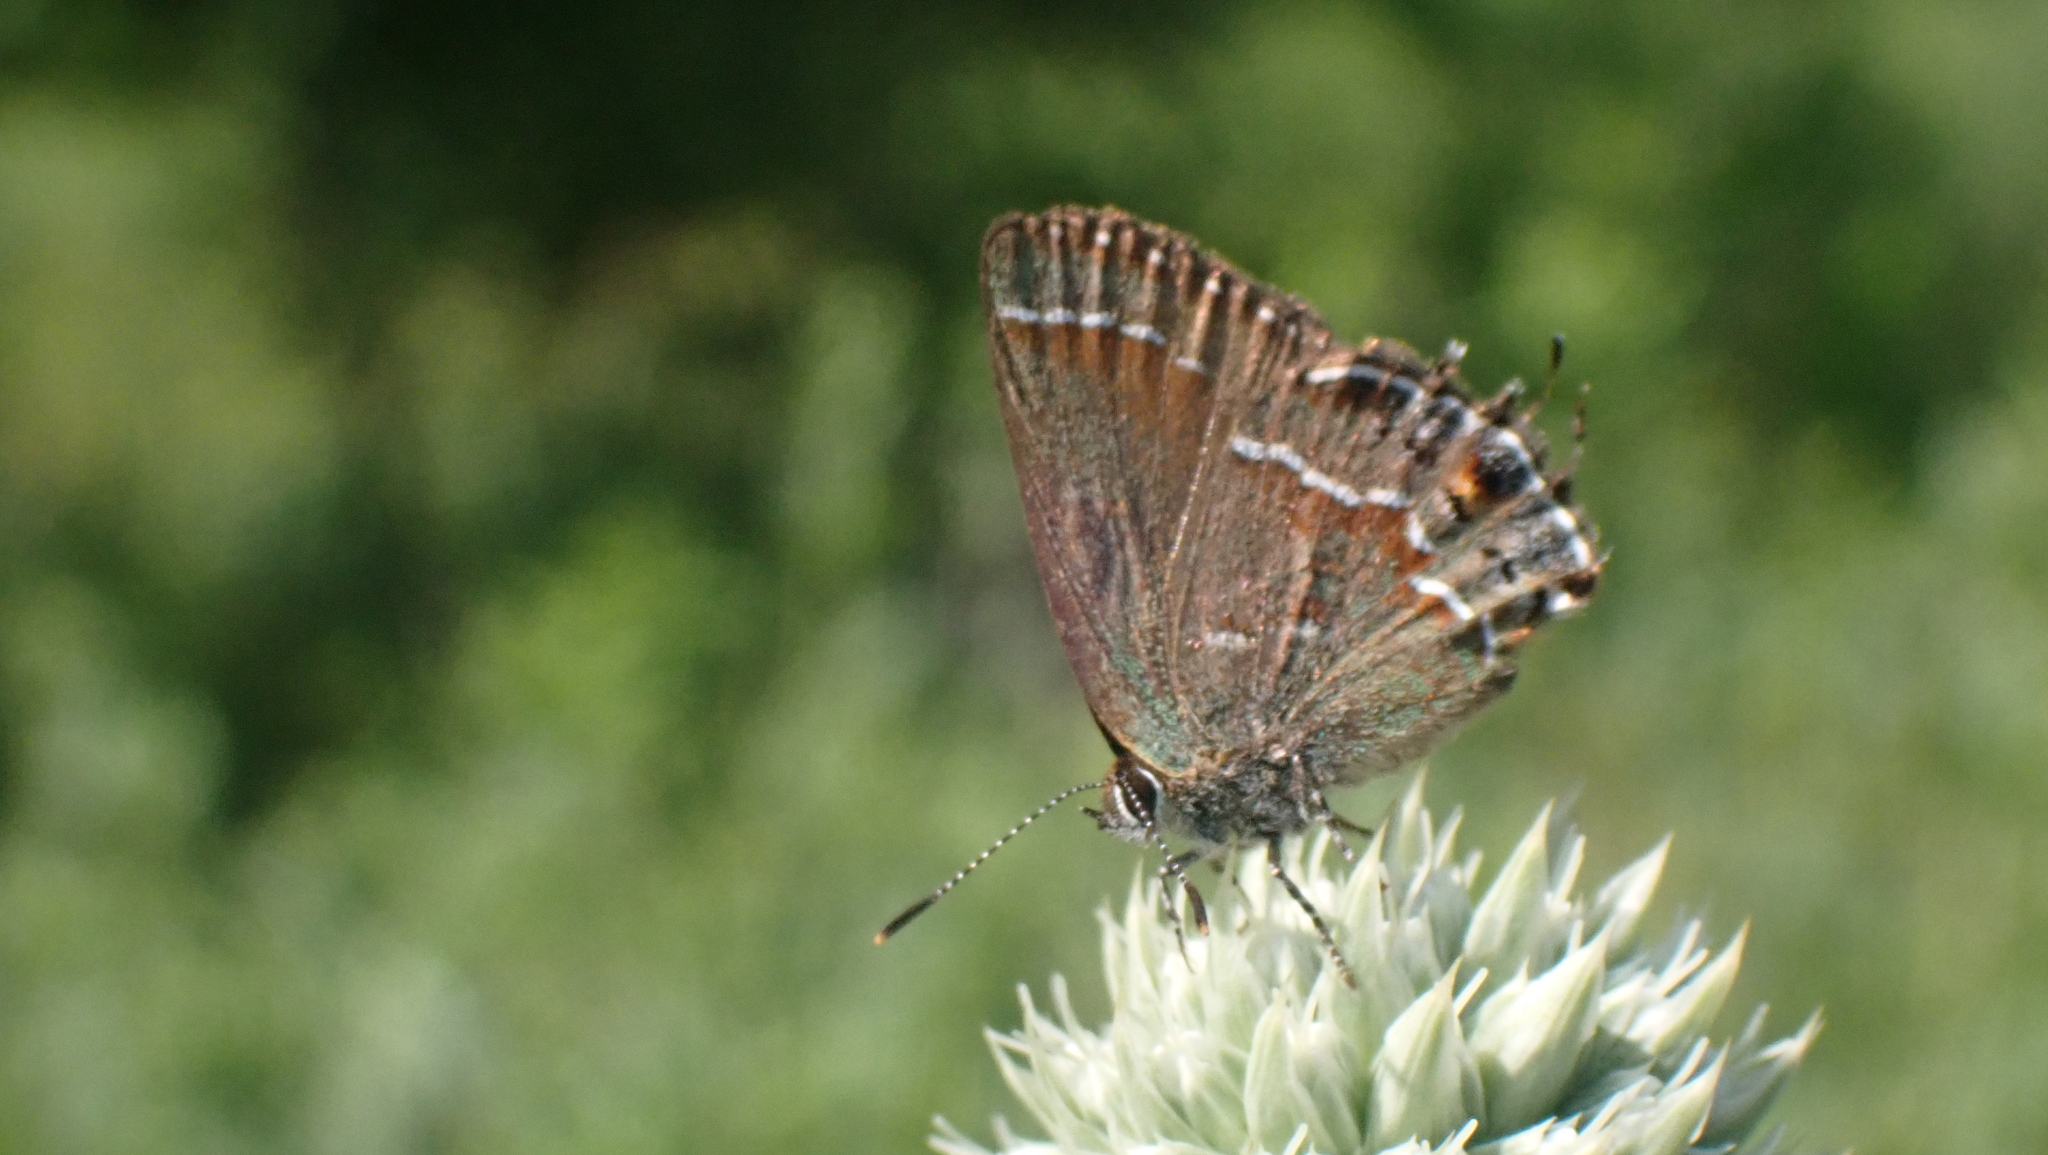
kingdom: Animalia
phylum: Arthropoda
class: Insecta
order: Lepidoptera
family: Lycaenidae
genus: Mitoura
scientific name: Mitoura gryneus
